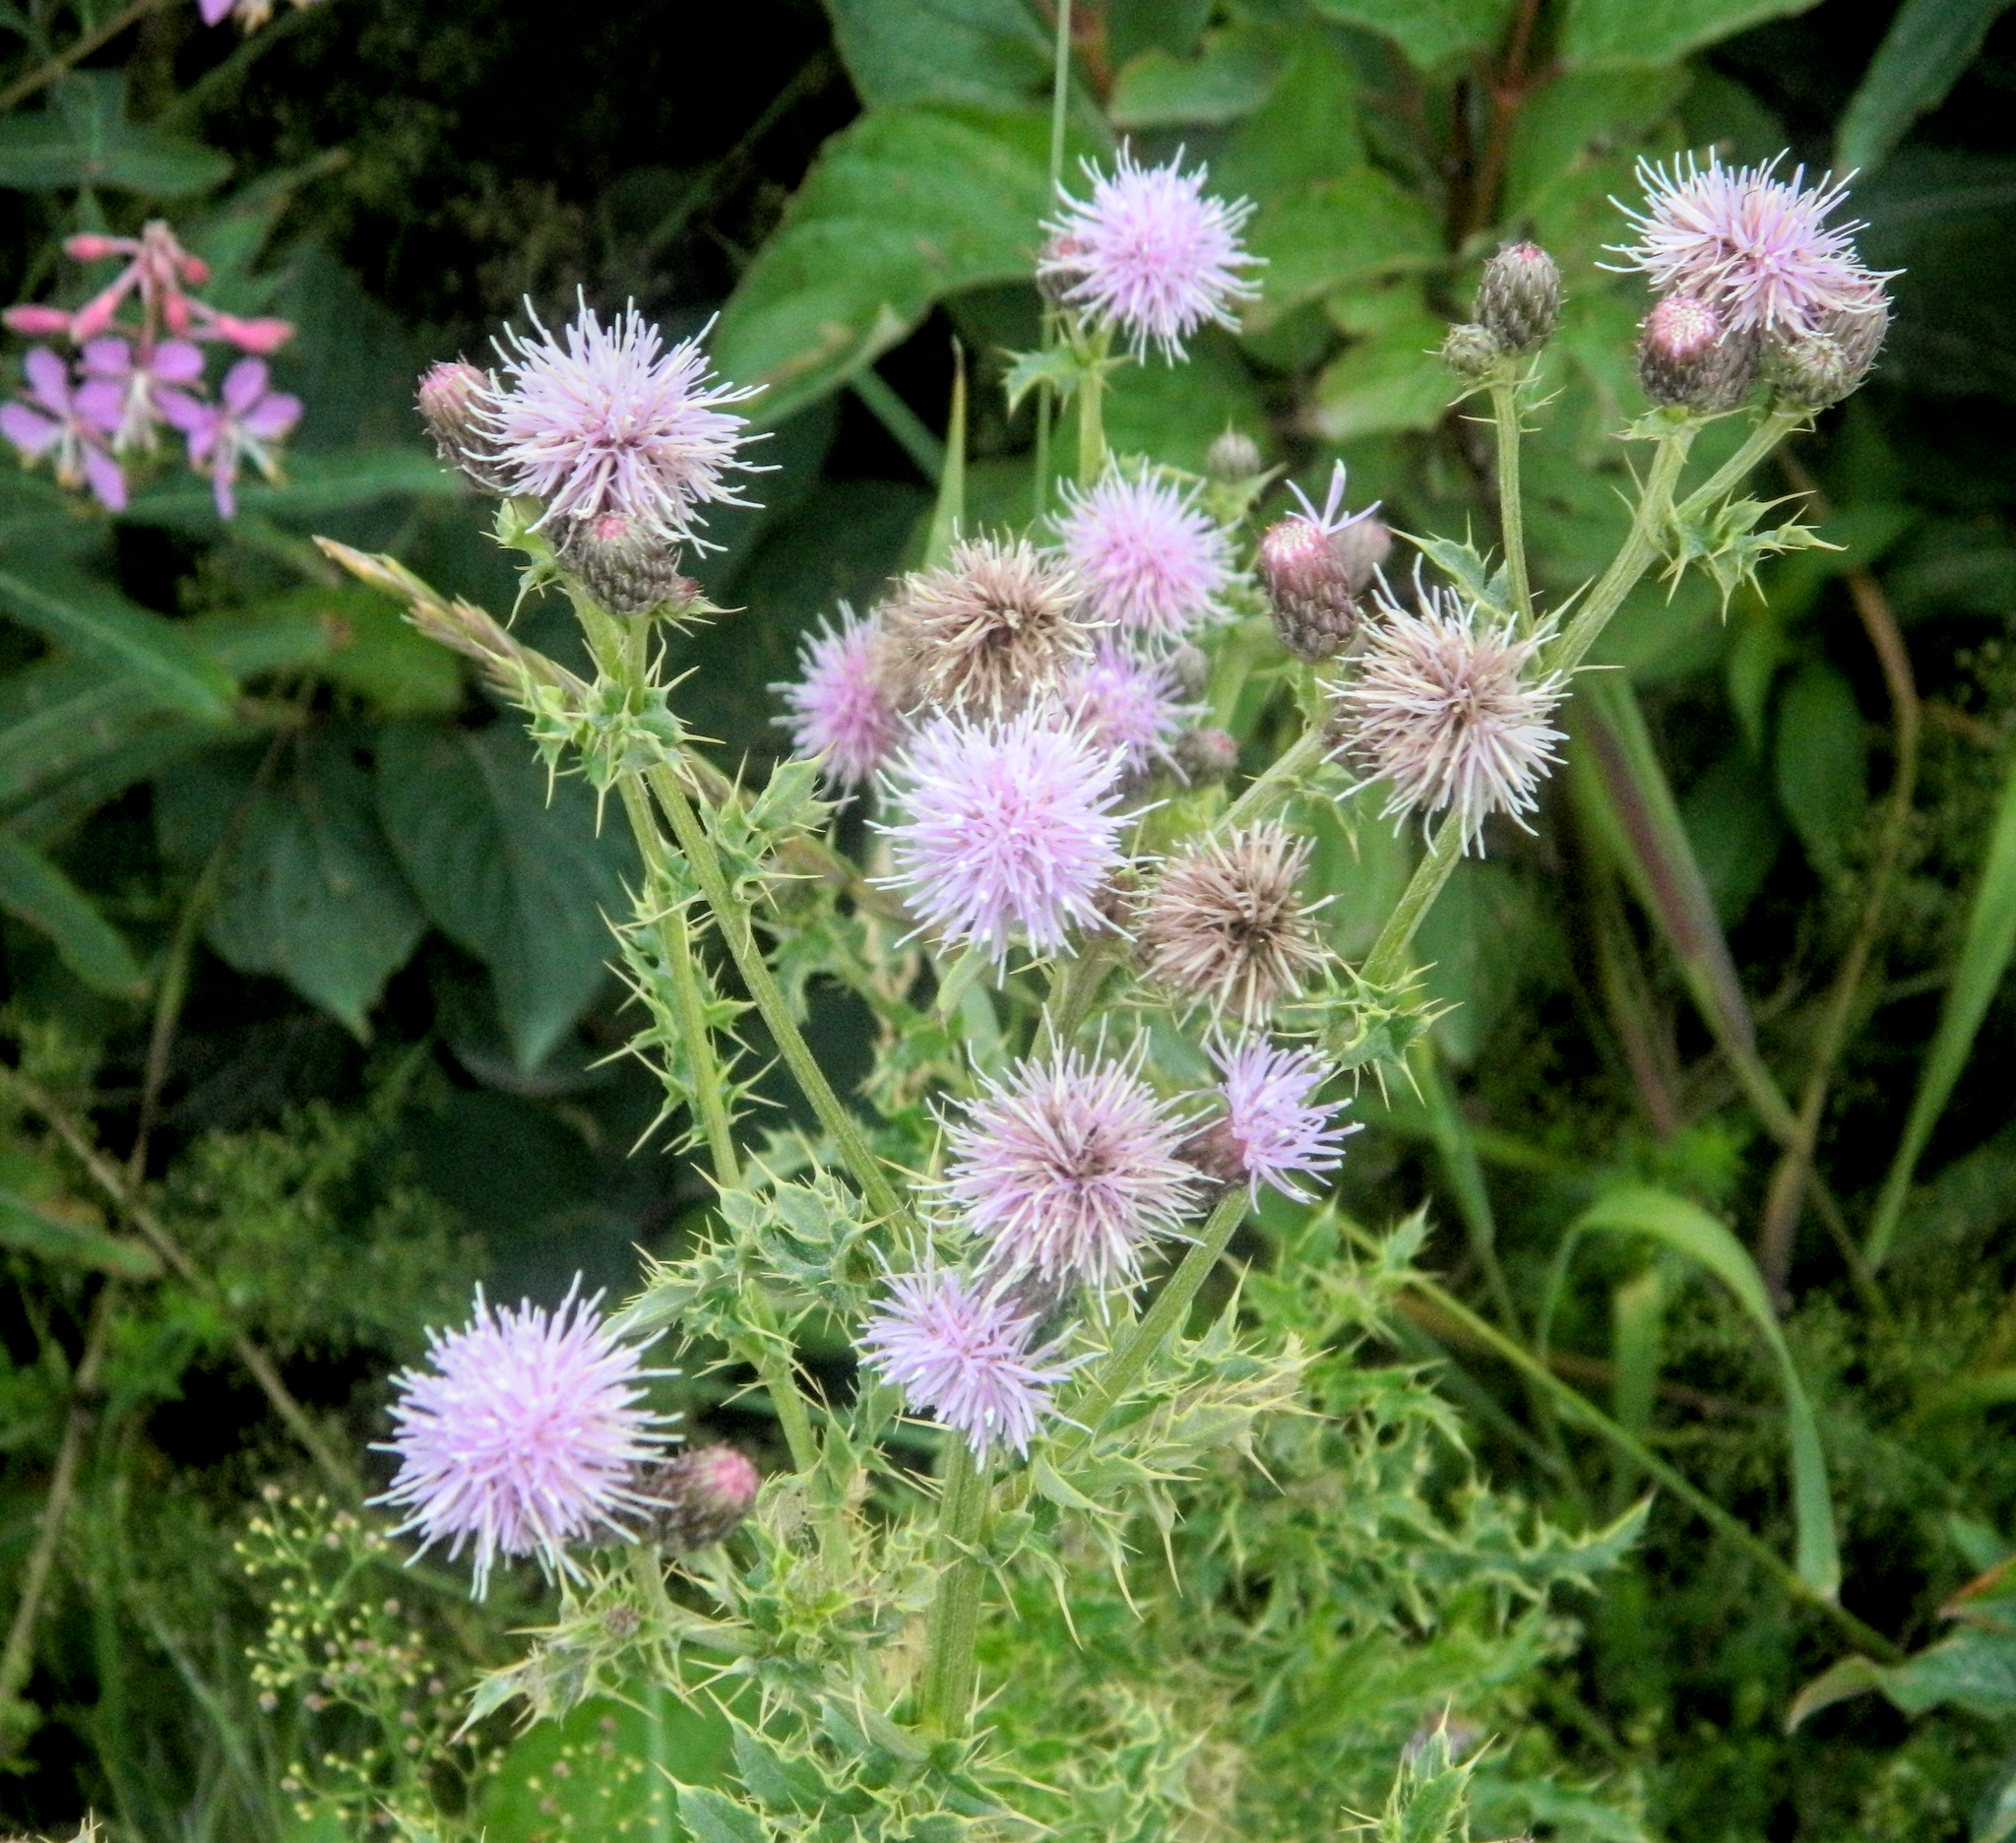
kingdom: Plantae
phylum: Tracheophyta
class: Magnoliopsida
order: Asterales
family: Asteraceae
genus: Cirsium
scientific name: Cirsium arvense
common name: Creeping thistle
